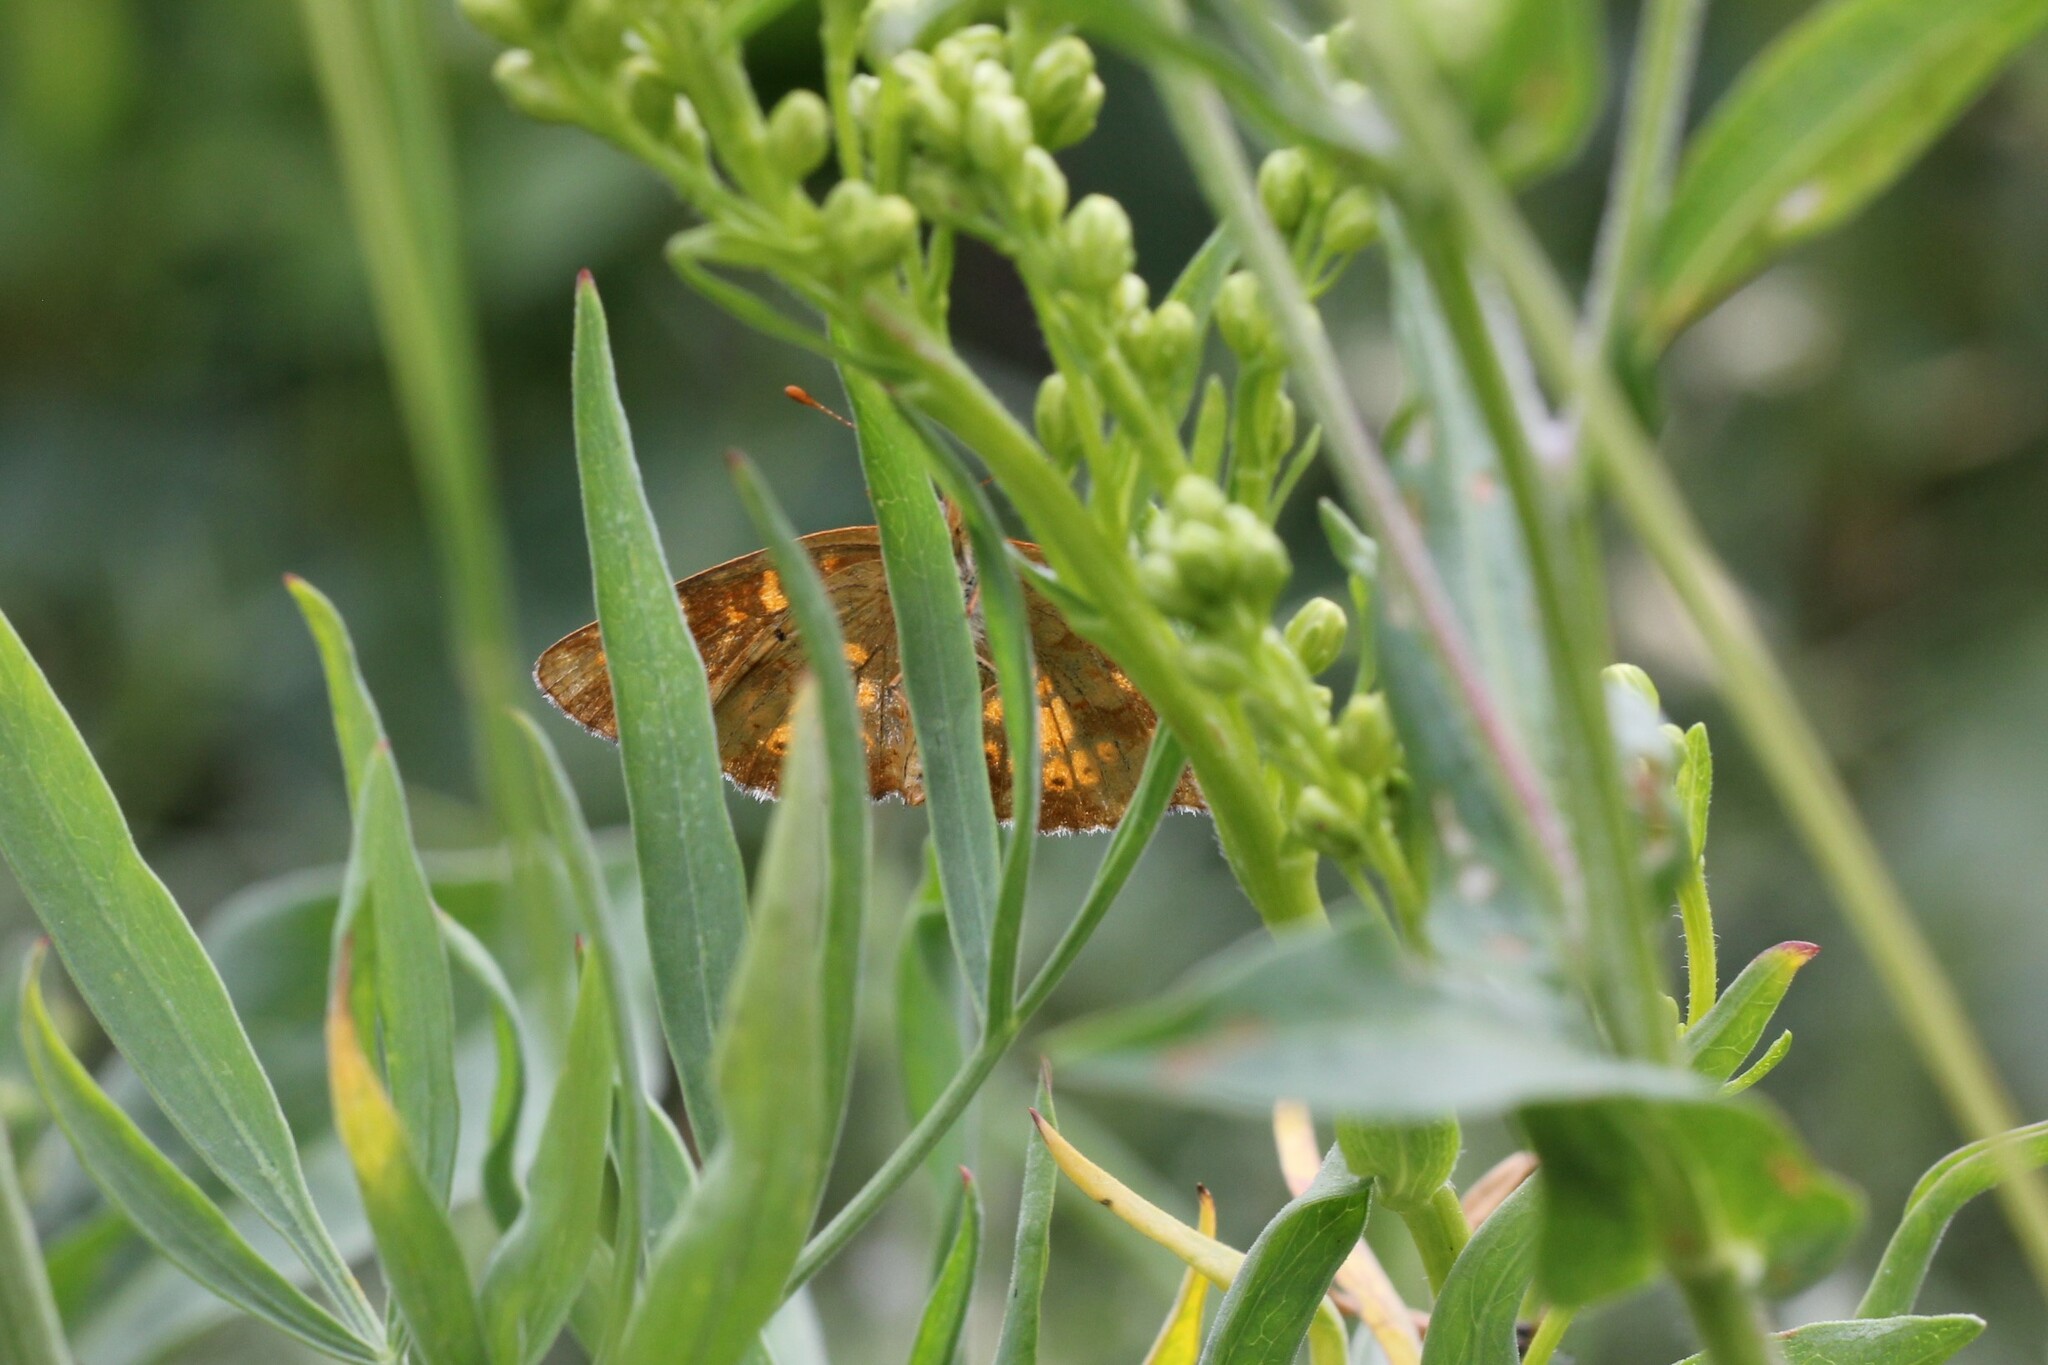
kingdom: Animalia
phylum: Arthropoda
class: Insecta
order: Lepidoptera
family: Nymphalidae
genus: Phyciodes
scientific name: Phyciodes tharos
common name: Pearl crescent
